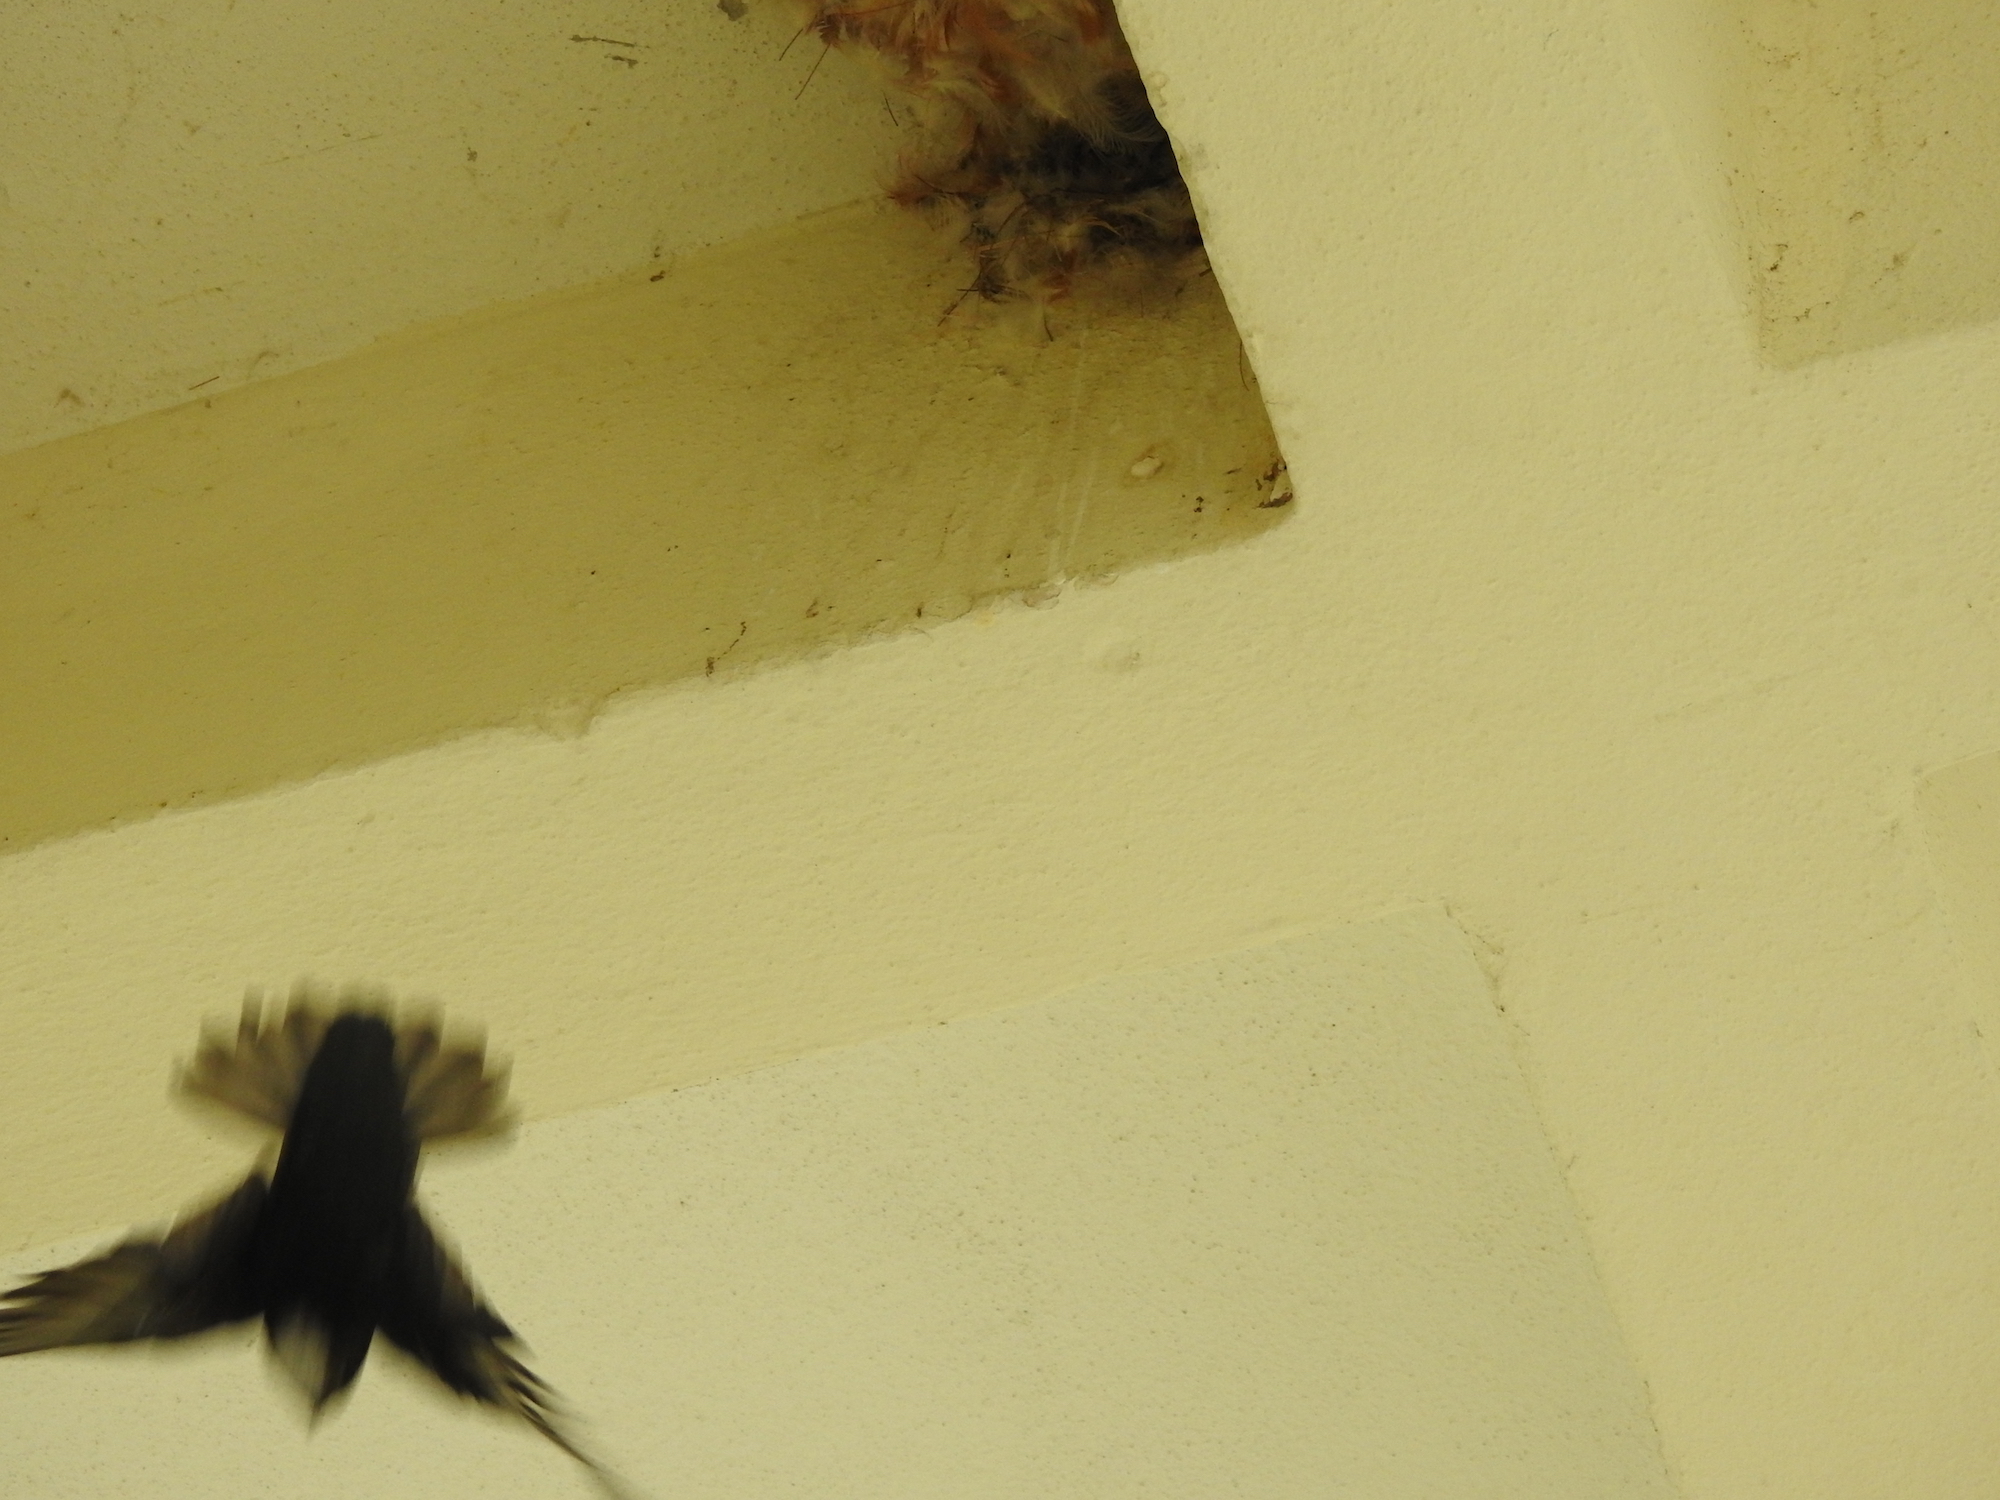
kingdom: Animalia
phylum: Chordata
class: Aves
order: Apodiformes
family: Apodidae
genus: Apus
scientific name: Apus nipalensis
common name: House swift
